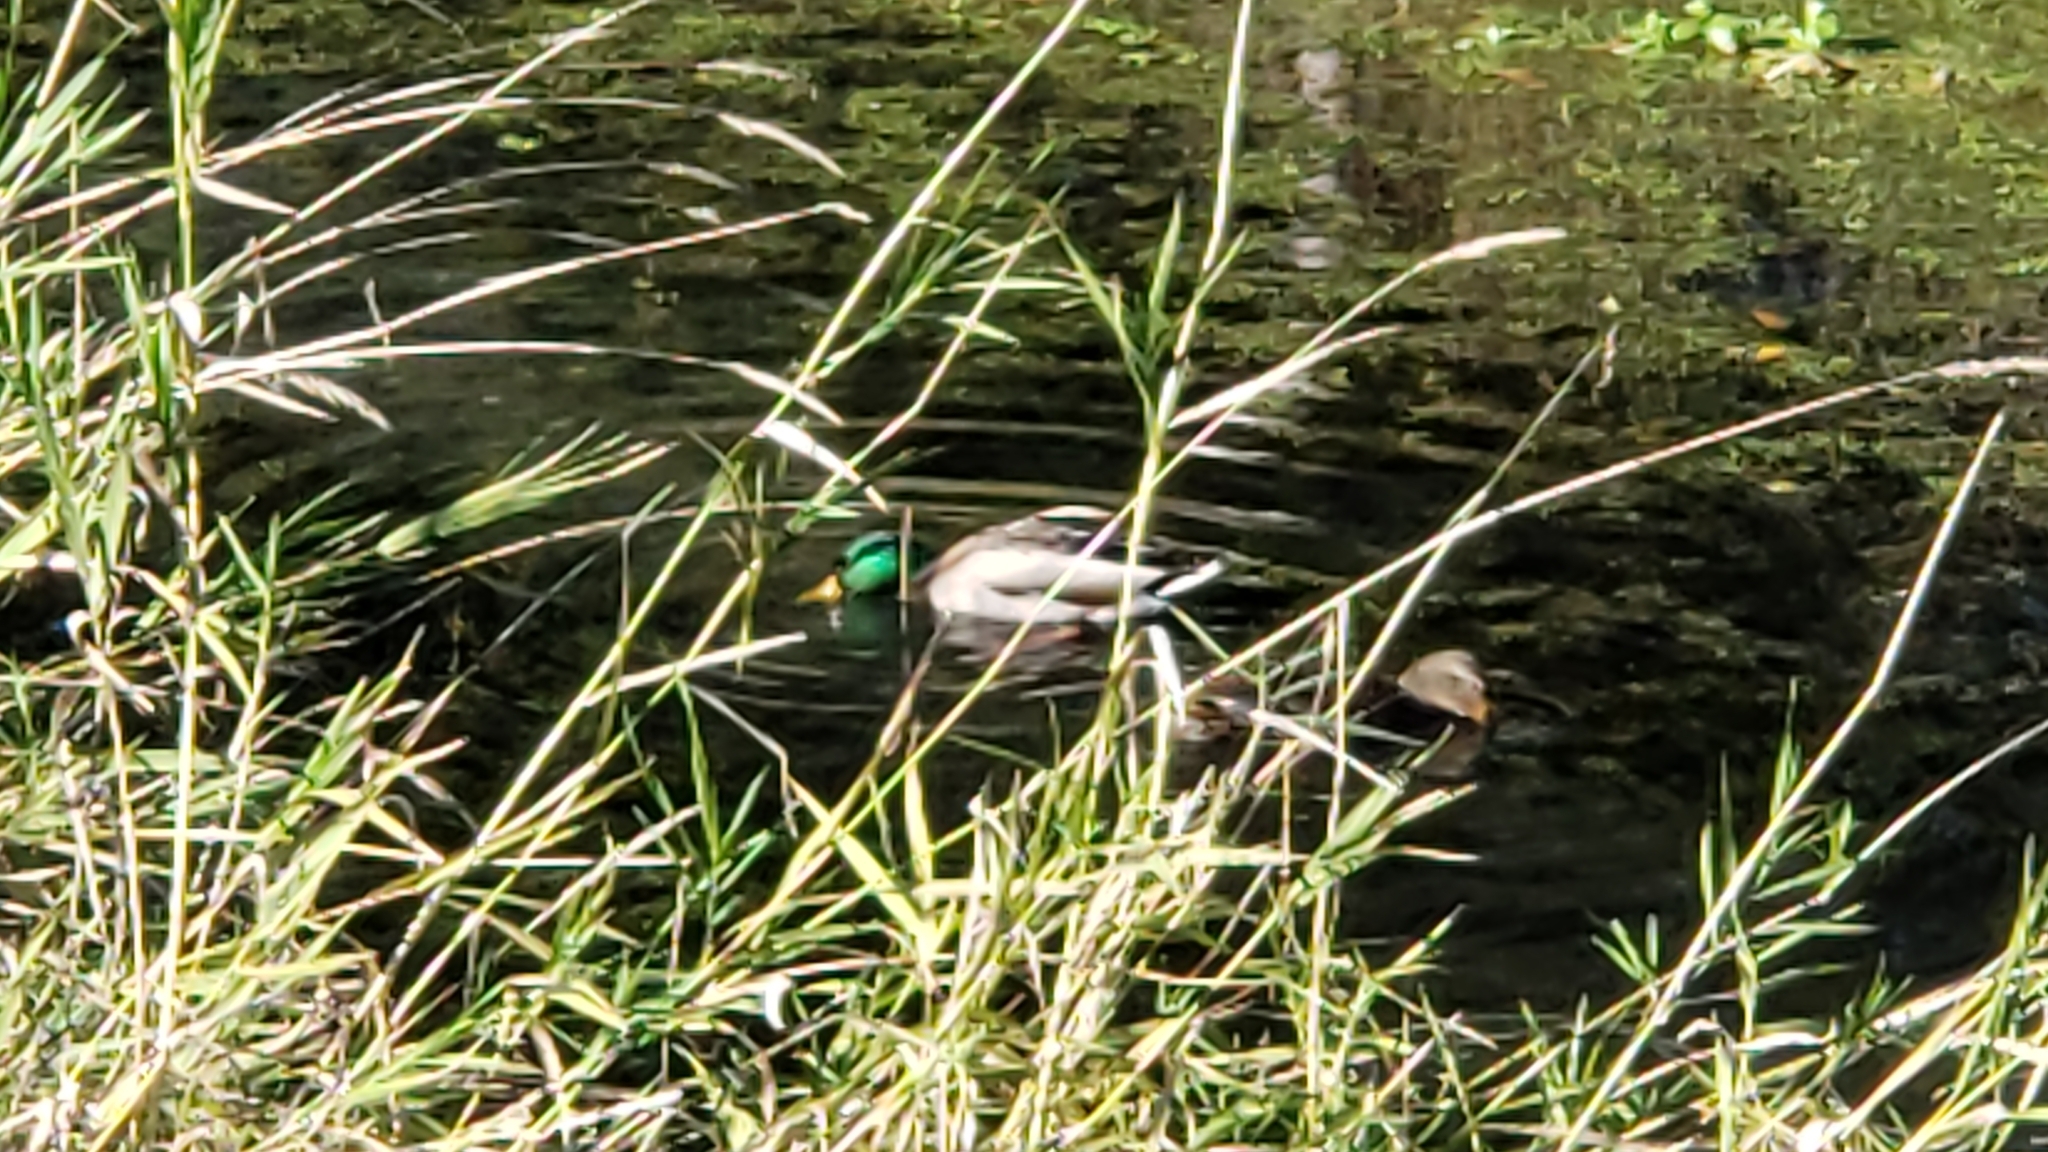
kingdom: Animalia
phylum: Chordata
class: Aves
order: Anseriformes
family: Anatidae
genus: Anas
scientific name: Anas platyrhynchos
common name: Mallard
